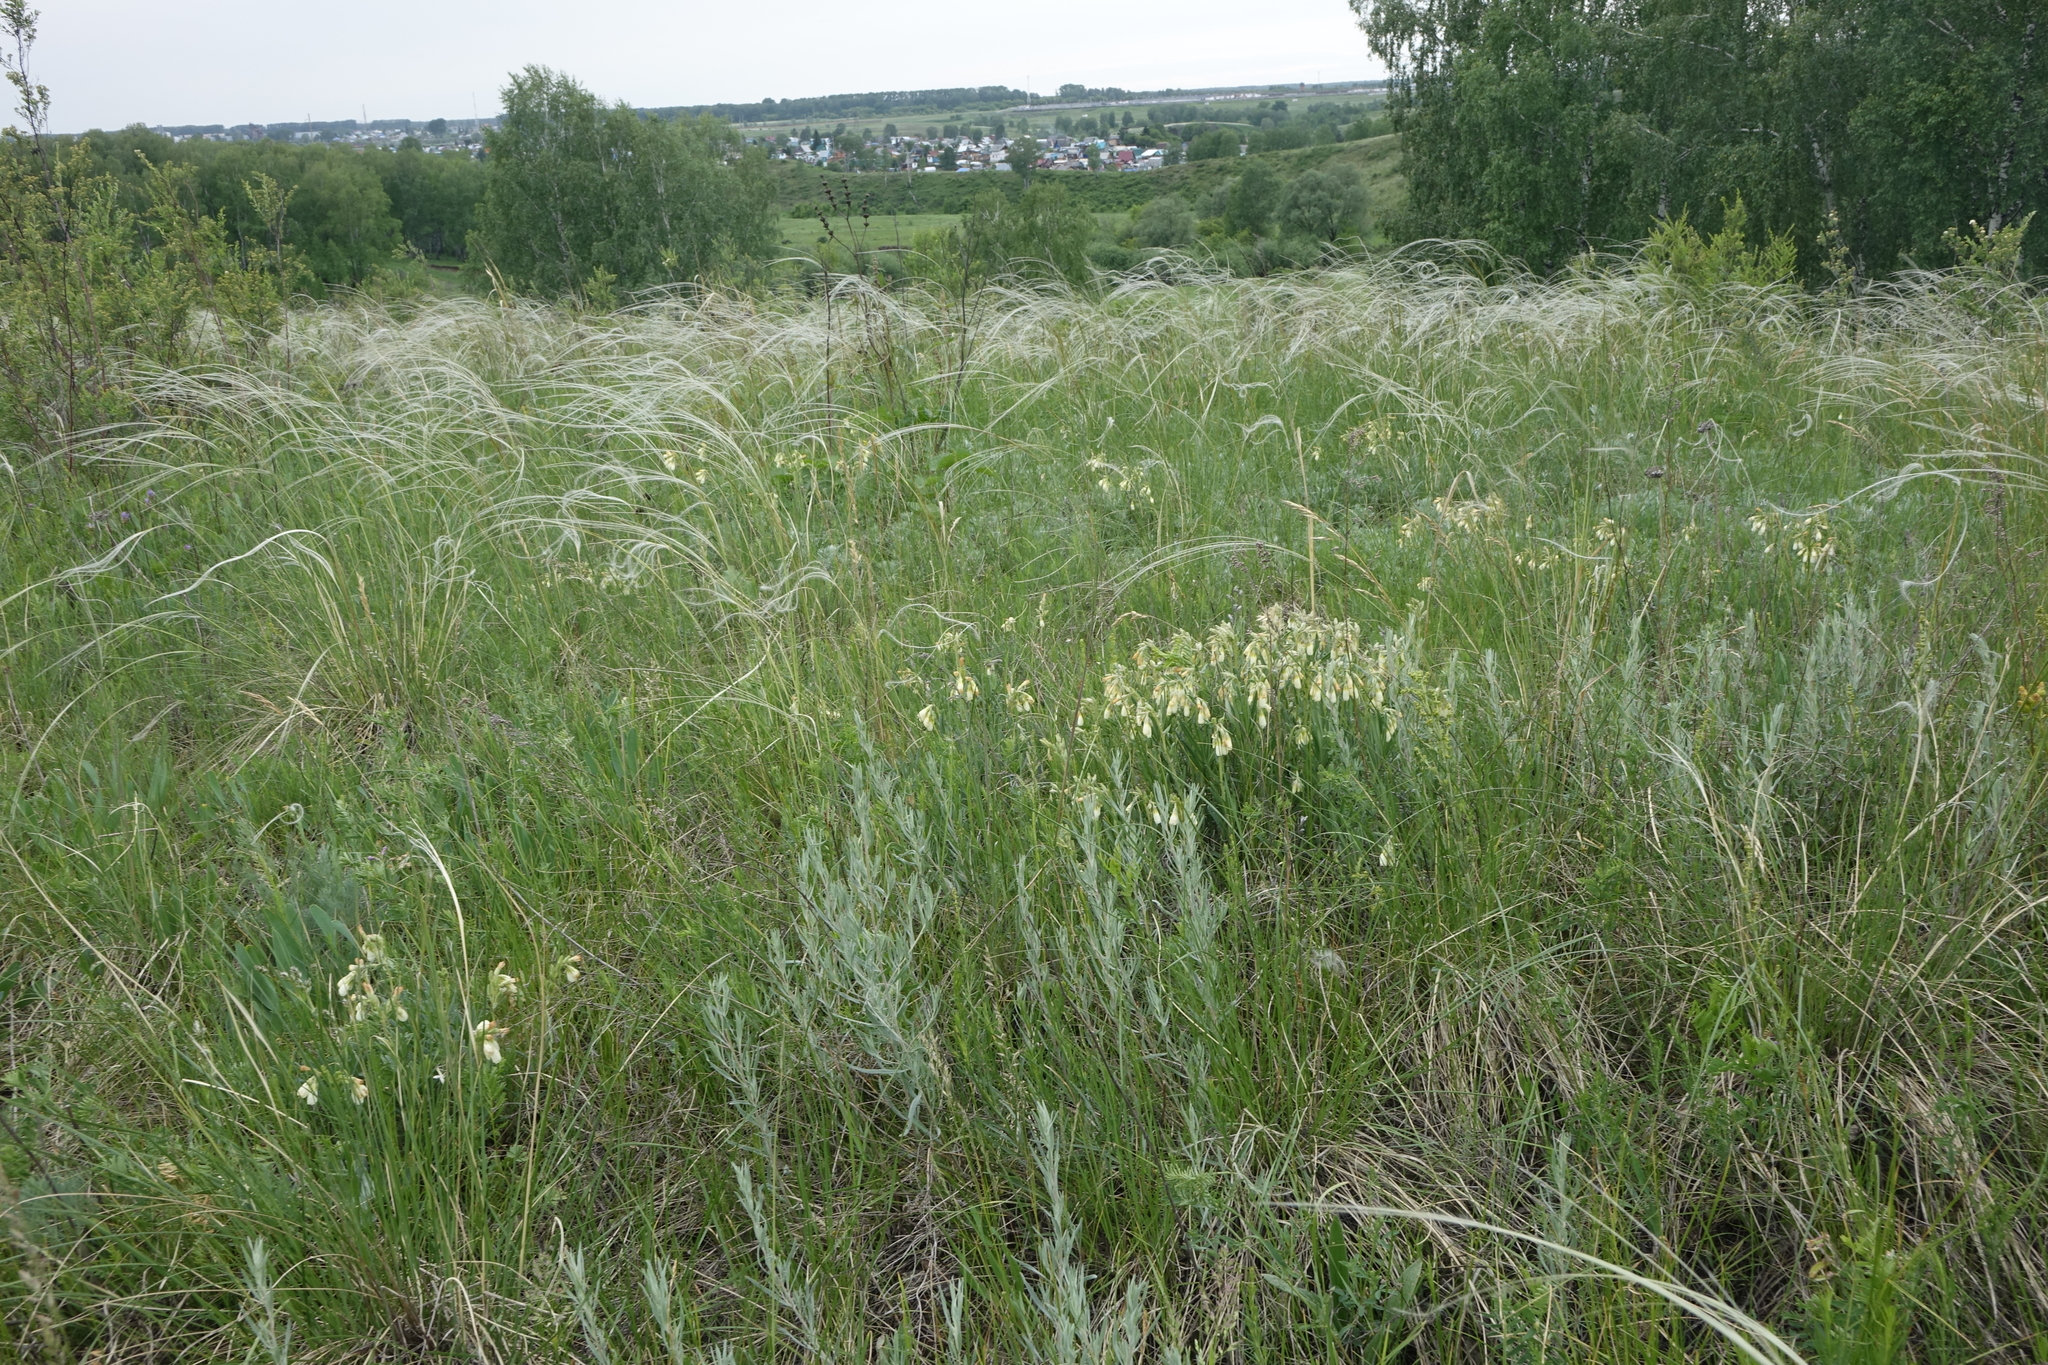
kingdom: Plantae
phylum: Tracheophyta
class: Magnoliopsida
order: Boraginales
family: Boraginaceae
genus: Onosma
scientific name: Onosma simplicissima
